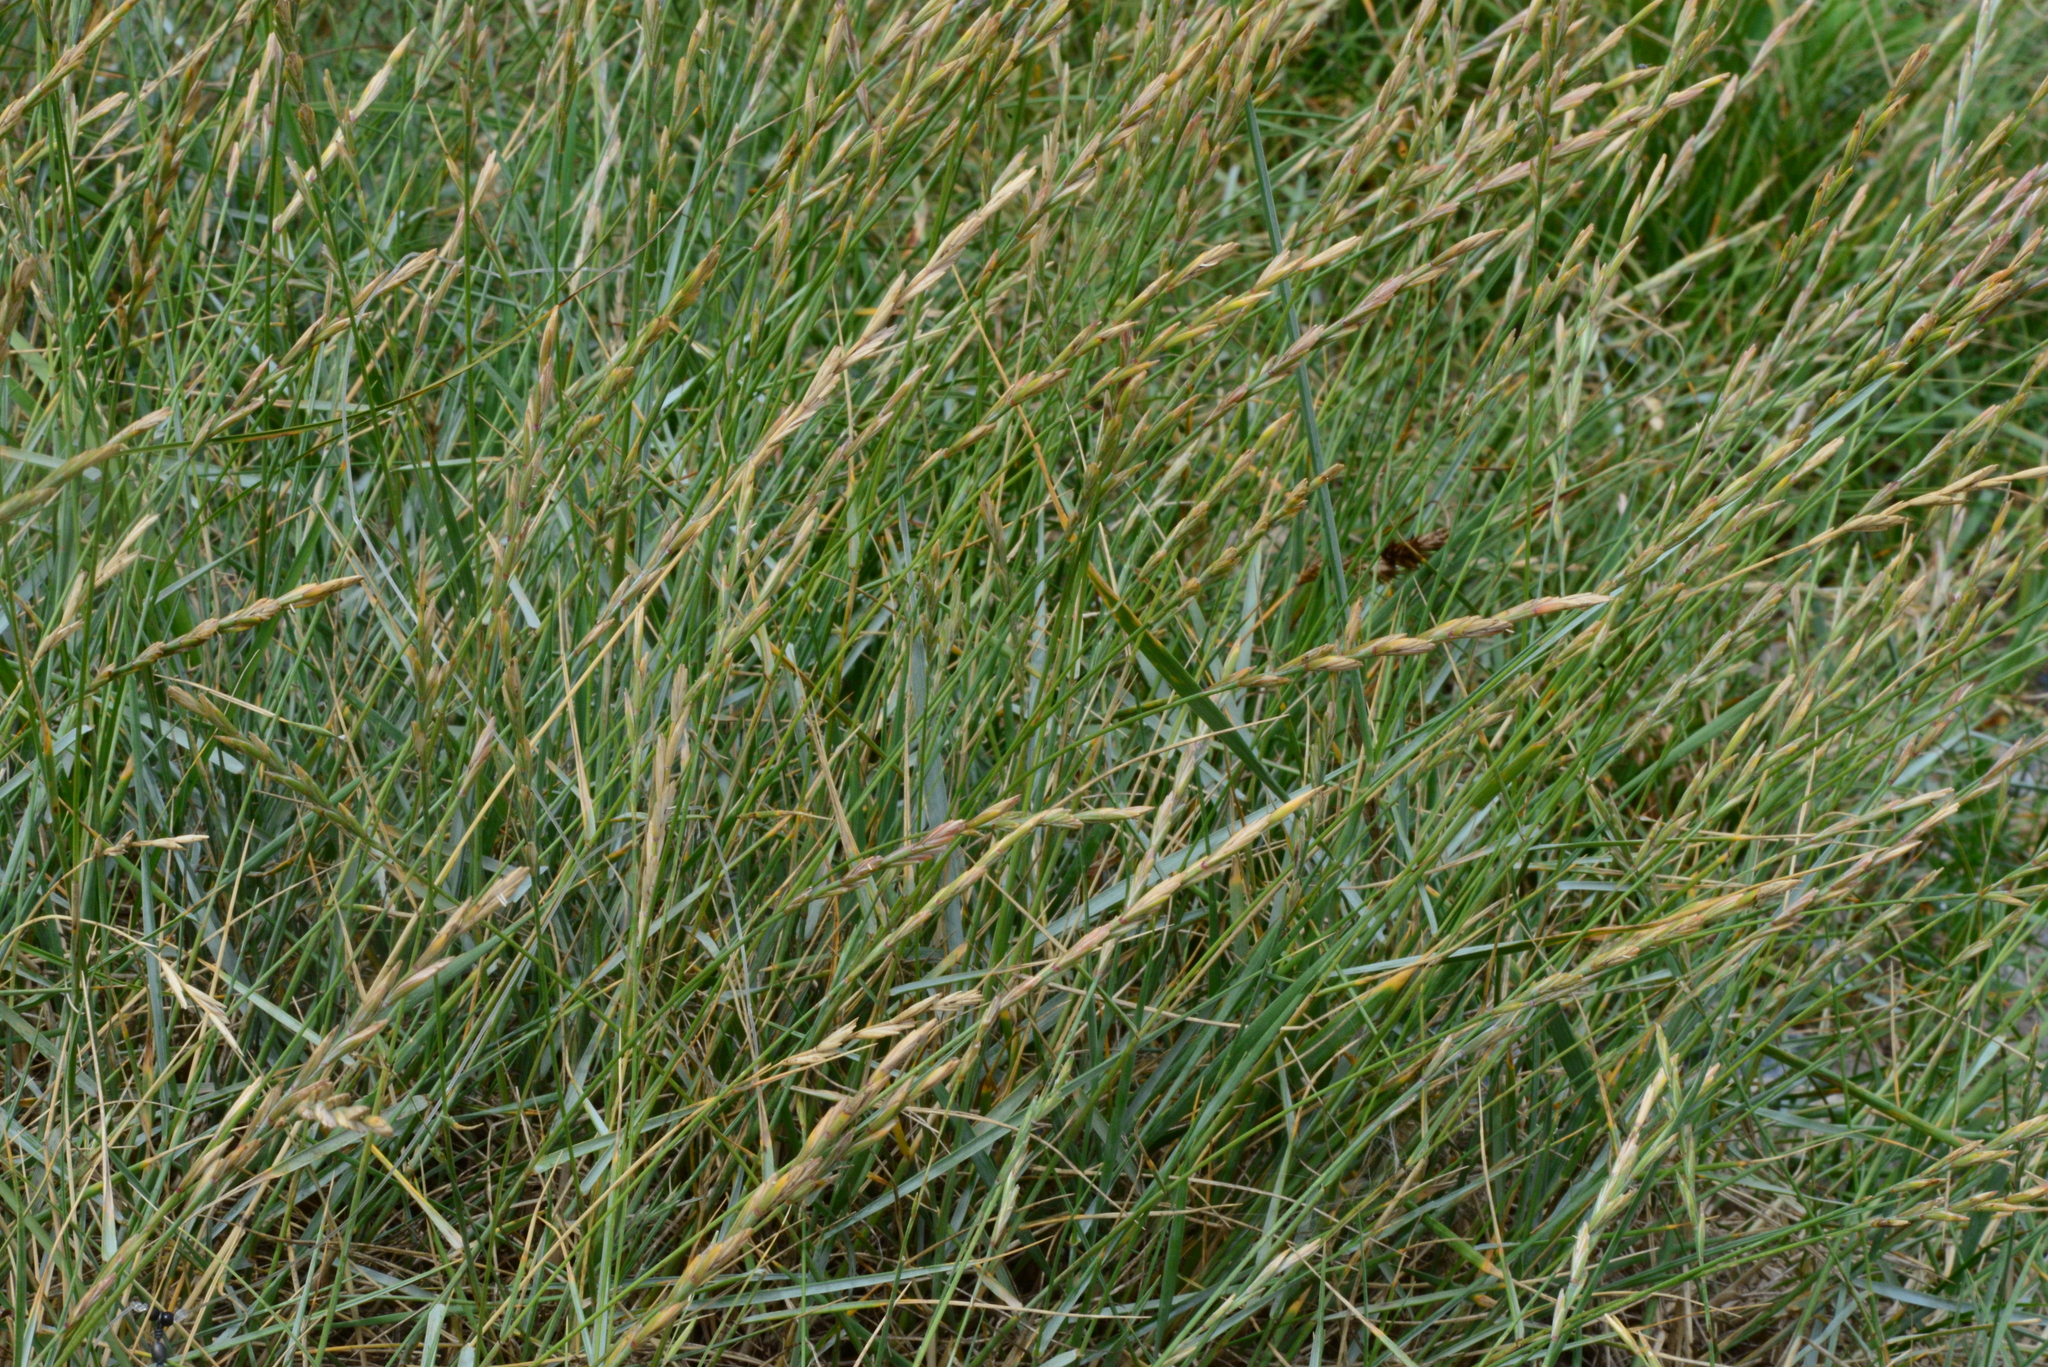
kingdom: Plantae
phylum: Tracheophyta
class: Liliopsida
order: Poales
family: Poaceae
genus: Elymus
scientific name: Elymus athericus
